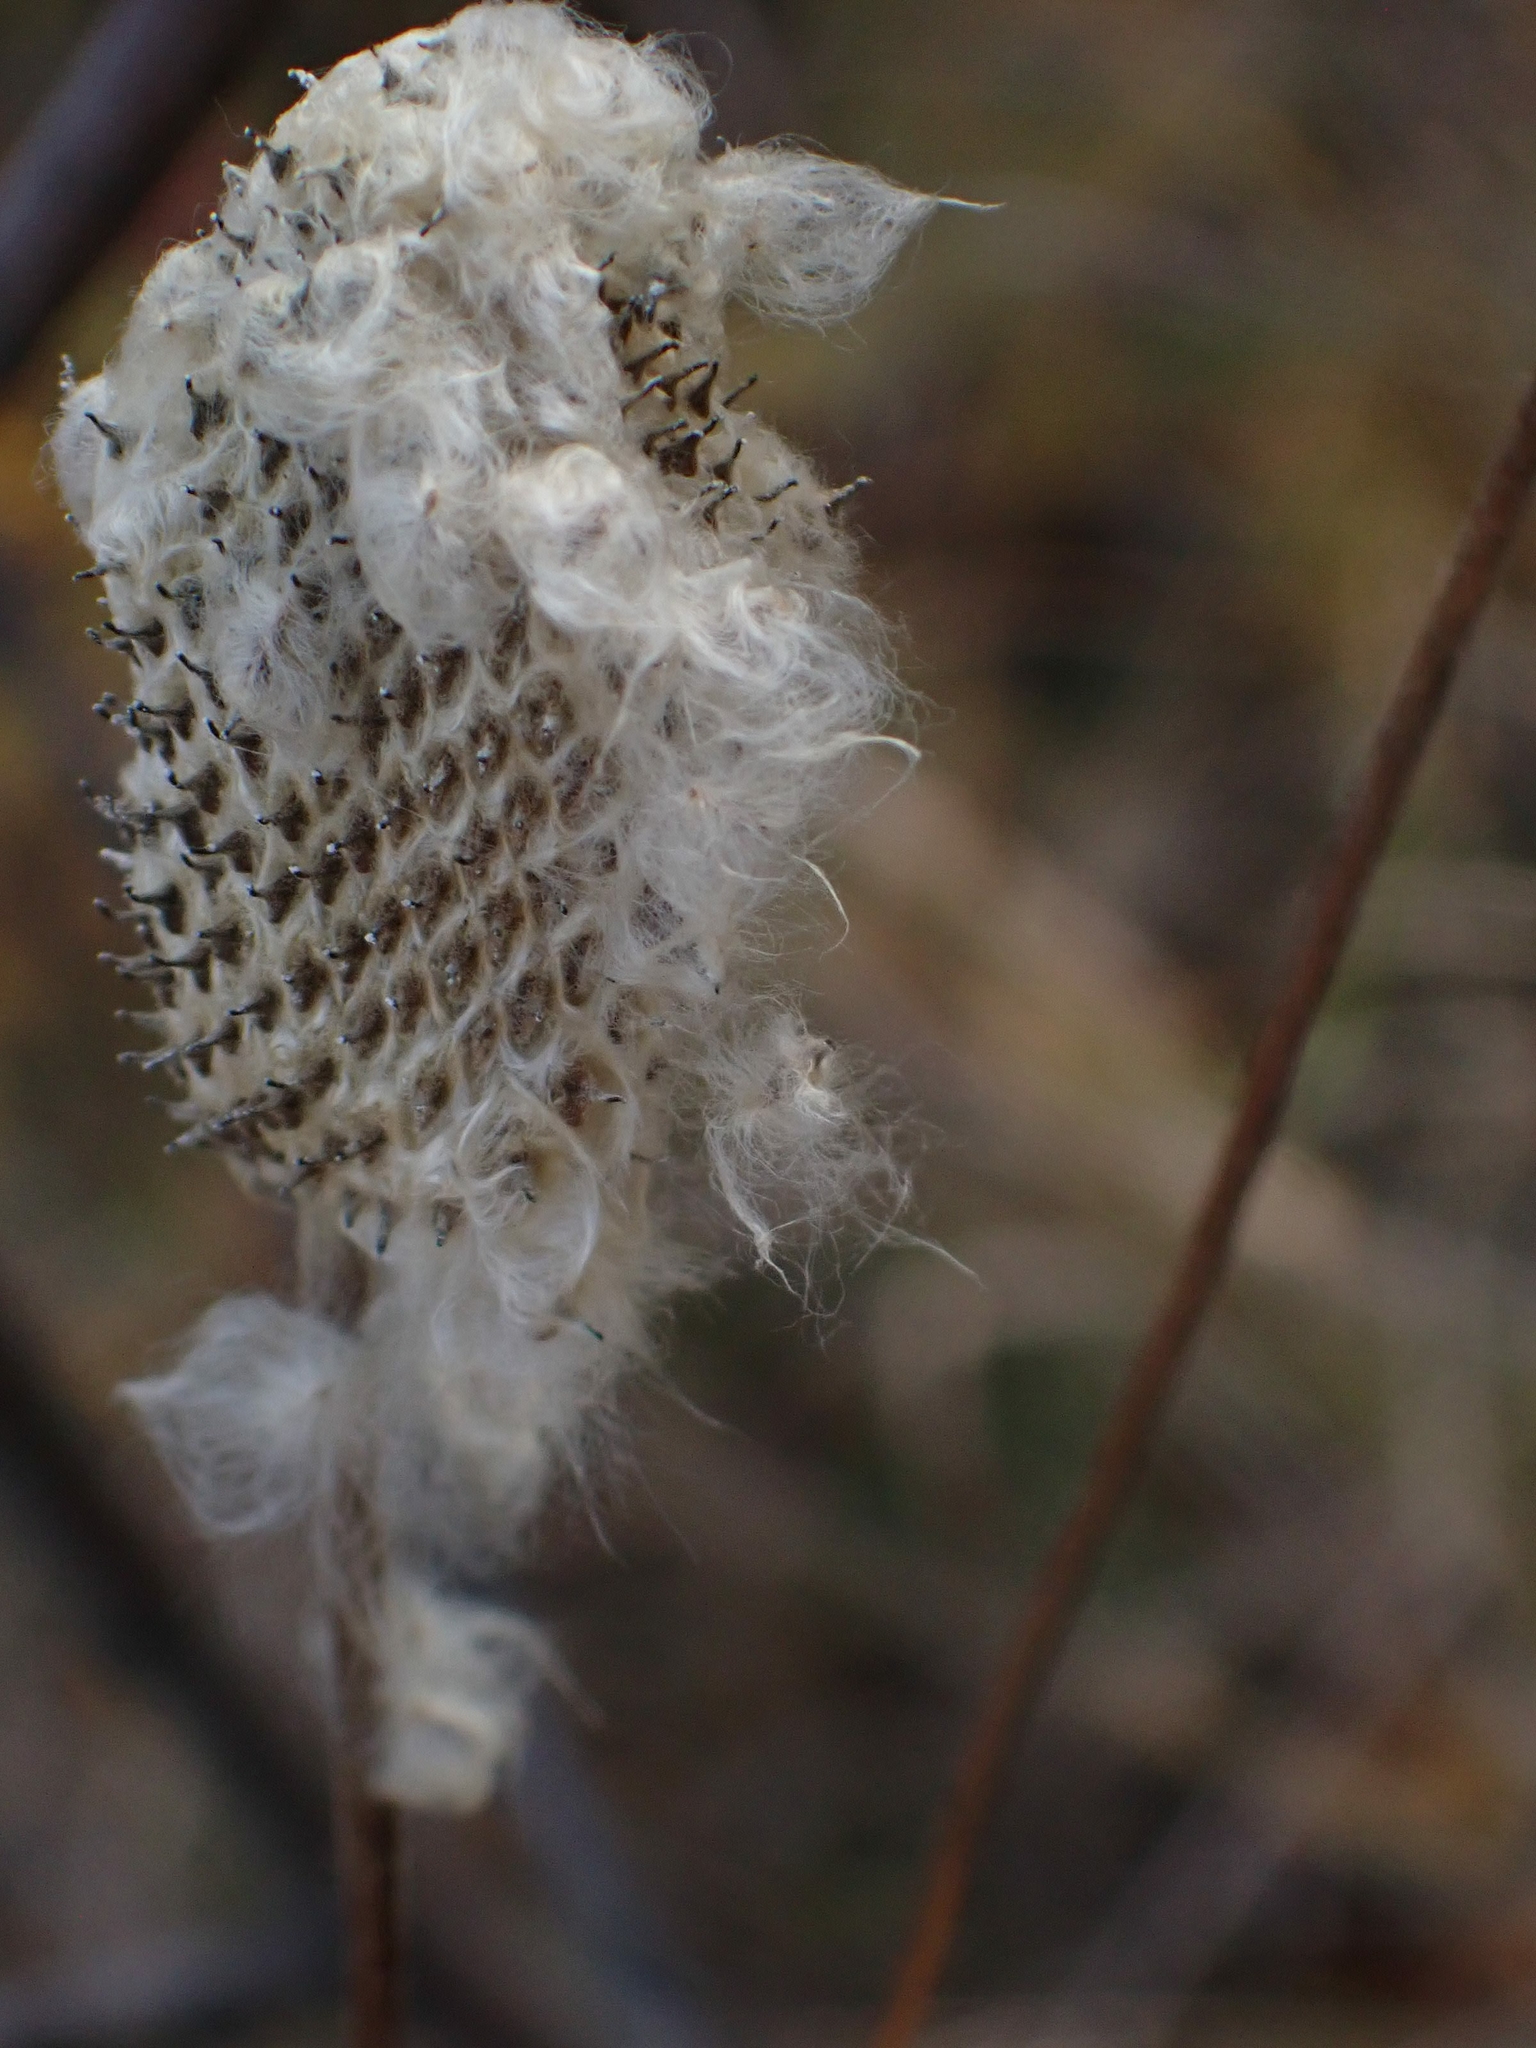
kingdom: Plantae
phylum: Tracheophyta
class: Magnoliopsida
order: Ranunculales
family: Ranunculaceae
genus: Anemone
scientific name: Anemone cylindrica
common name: Candle anemone
